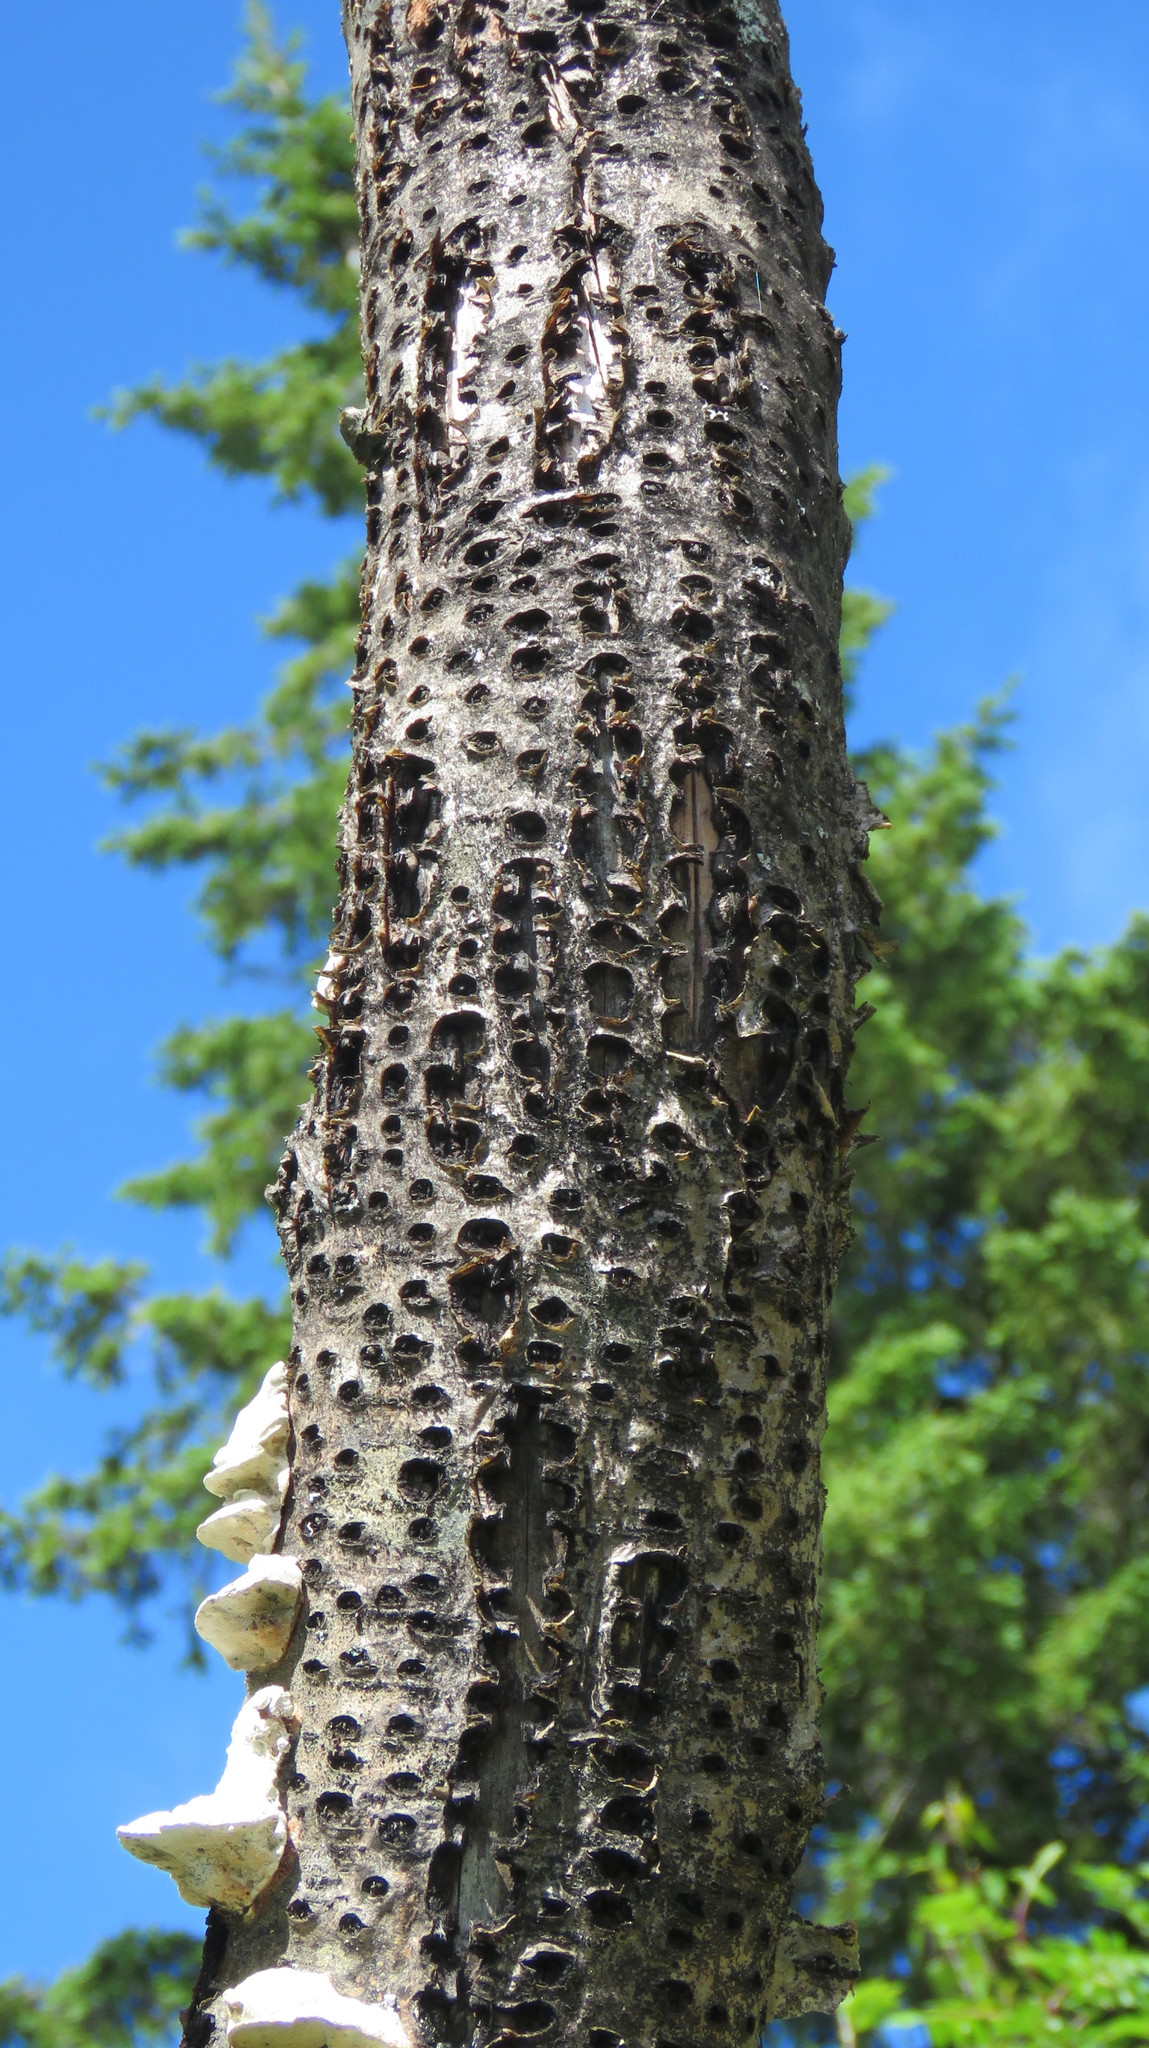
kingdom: Animalia
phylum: Chordata
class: Aves
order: Piciformes
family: Picidae
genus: Sphyrapicus
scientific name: Sphyrapicus varius
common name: Yellow-bellied sapsucker
